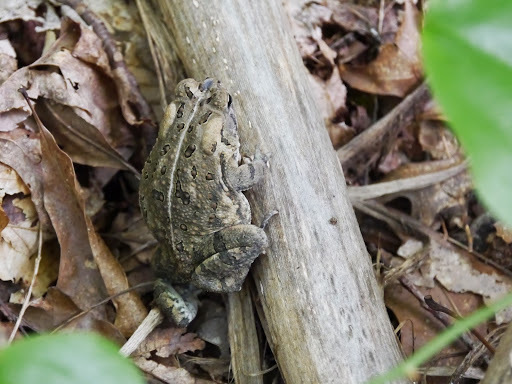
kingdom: Animalia
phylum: Chordata
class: Amphibia
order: Anura
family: Bufonidae
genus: Anaxyrus
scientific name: Anaxyrus fowleri
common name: Fowler's toad
